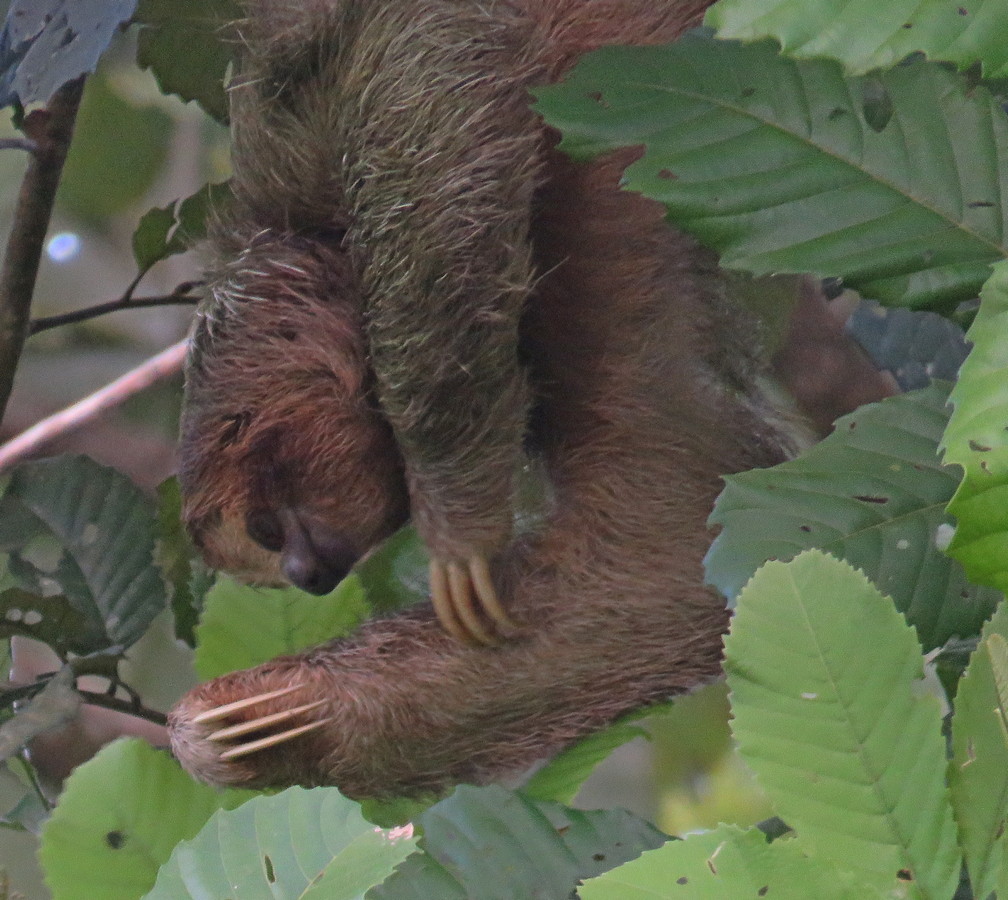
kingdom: Animalia
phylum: Chordata
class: Mammalia
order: Pilosa
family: Bradypodidae
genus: Bradypus
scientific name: Bradypus variegatus
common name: Brown-throated three-toed sloth
